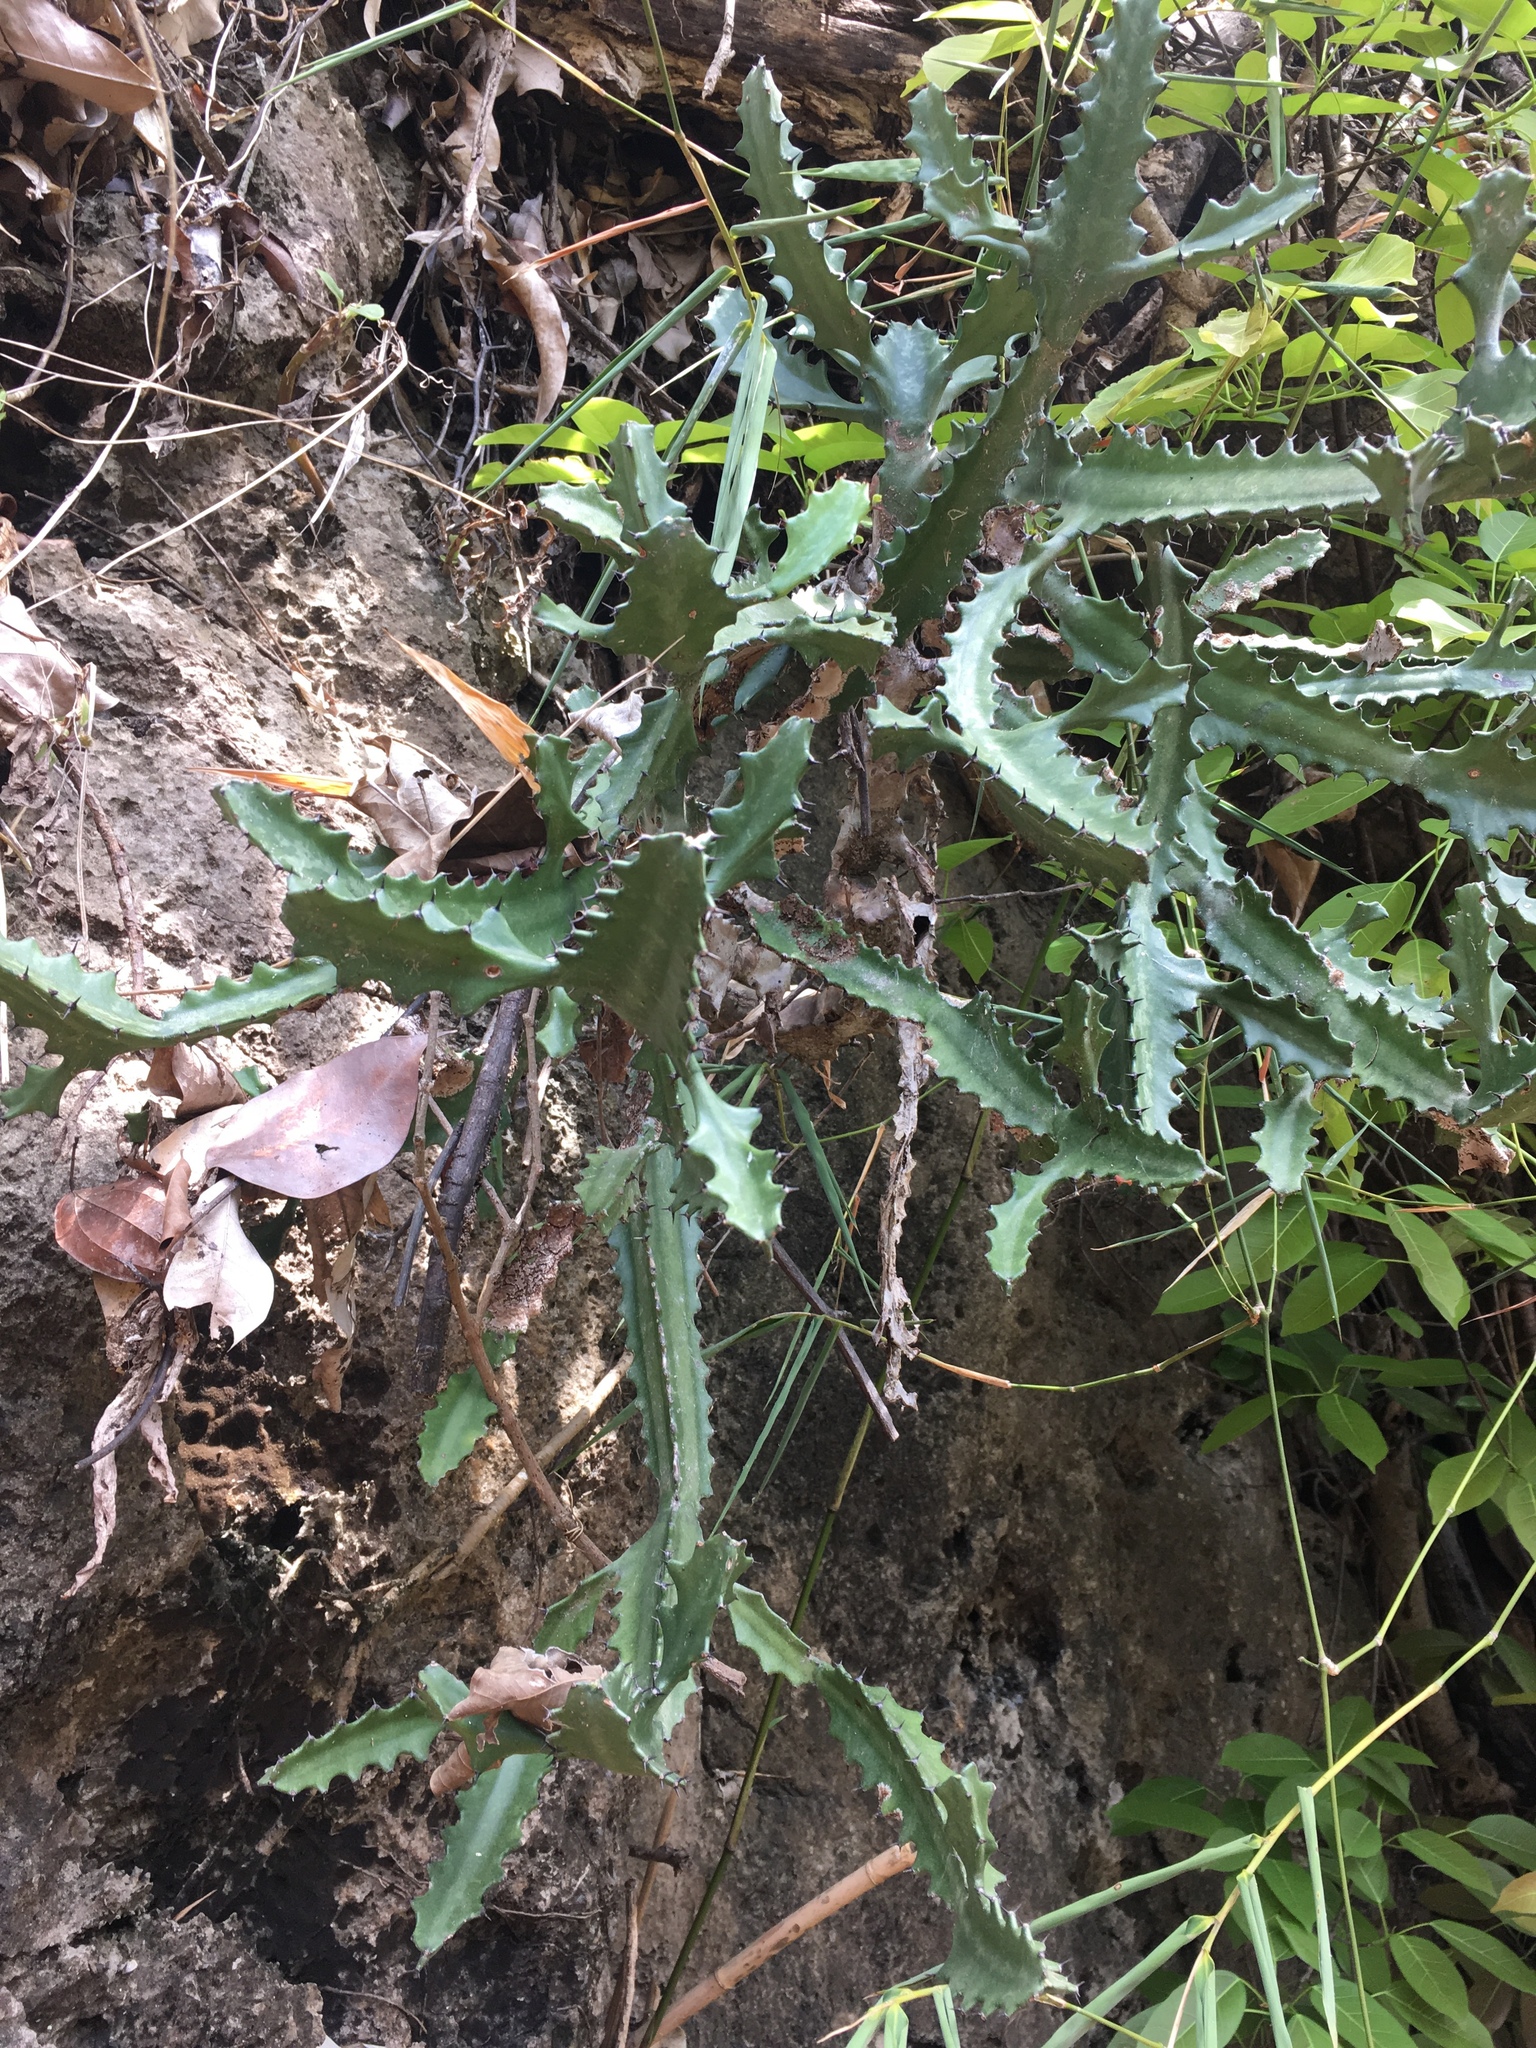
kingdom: Plantae
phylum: Tracheophyta
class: Magnoliopsida
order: Malpighiales
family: Euphorbiaceae
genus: Euphorbia
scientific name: Euphorbia antiquorum
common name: Malayan spurge tree
